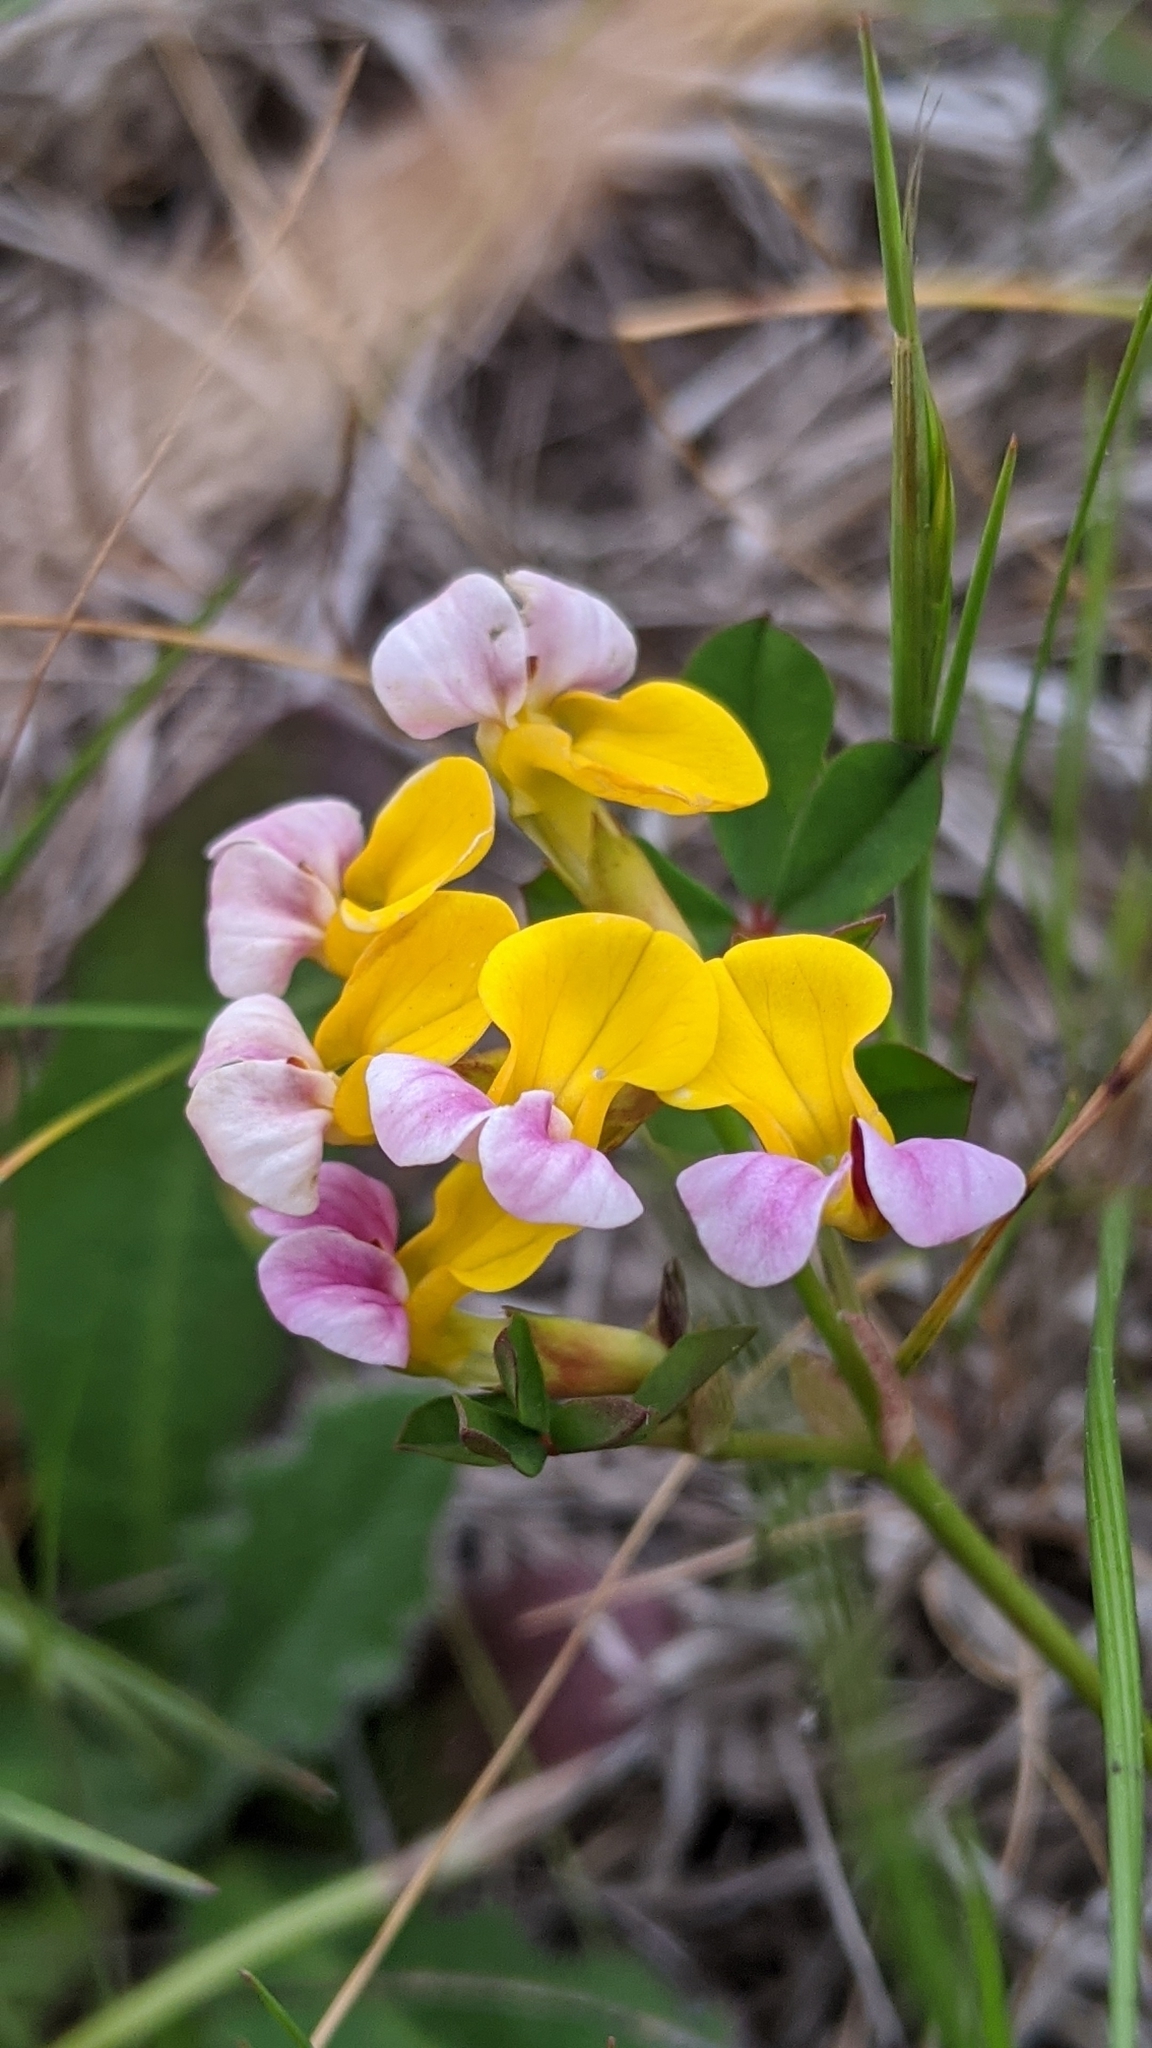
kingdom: Plantae
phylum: Tracheophyta
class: Magnoliopsida
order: Fabales
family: Fabaceae
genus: Hosackia
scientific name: Hosackia gracilis
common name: Seaside bird's-foot lotus
